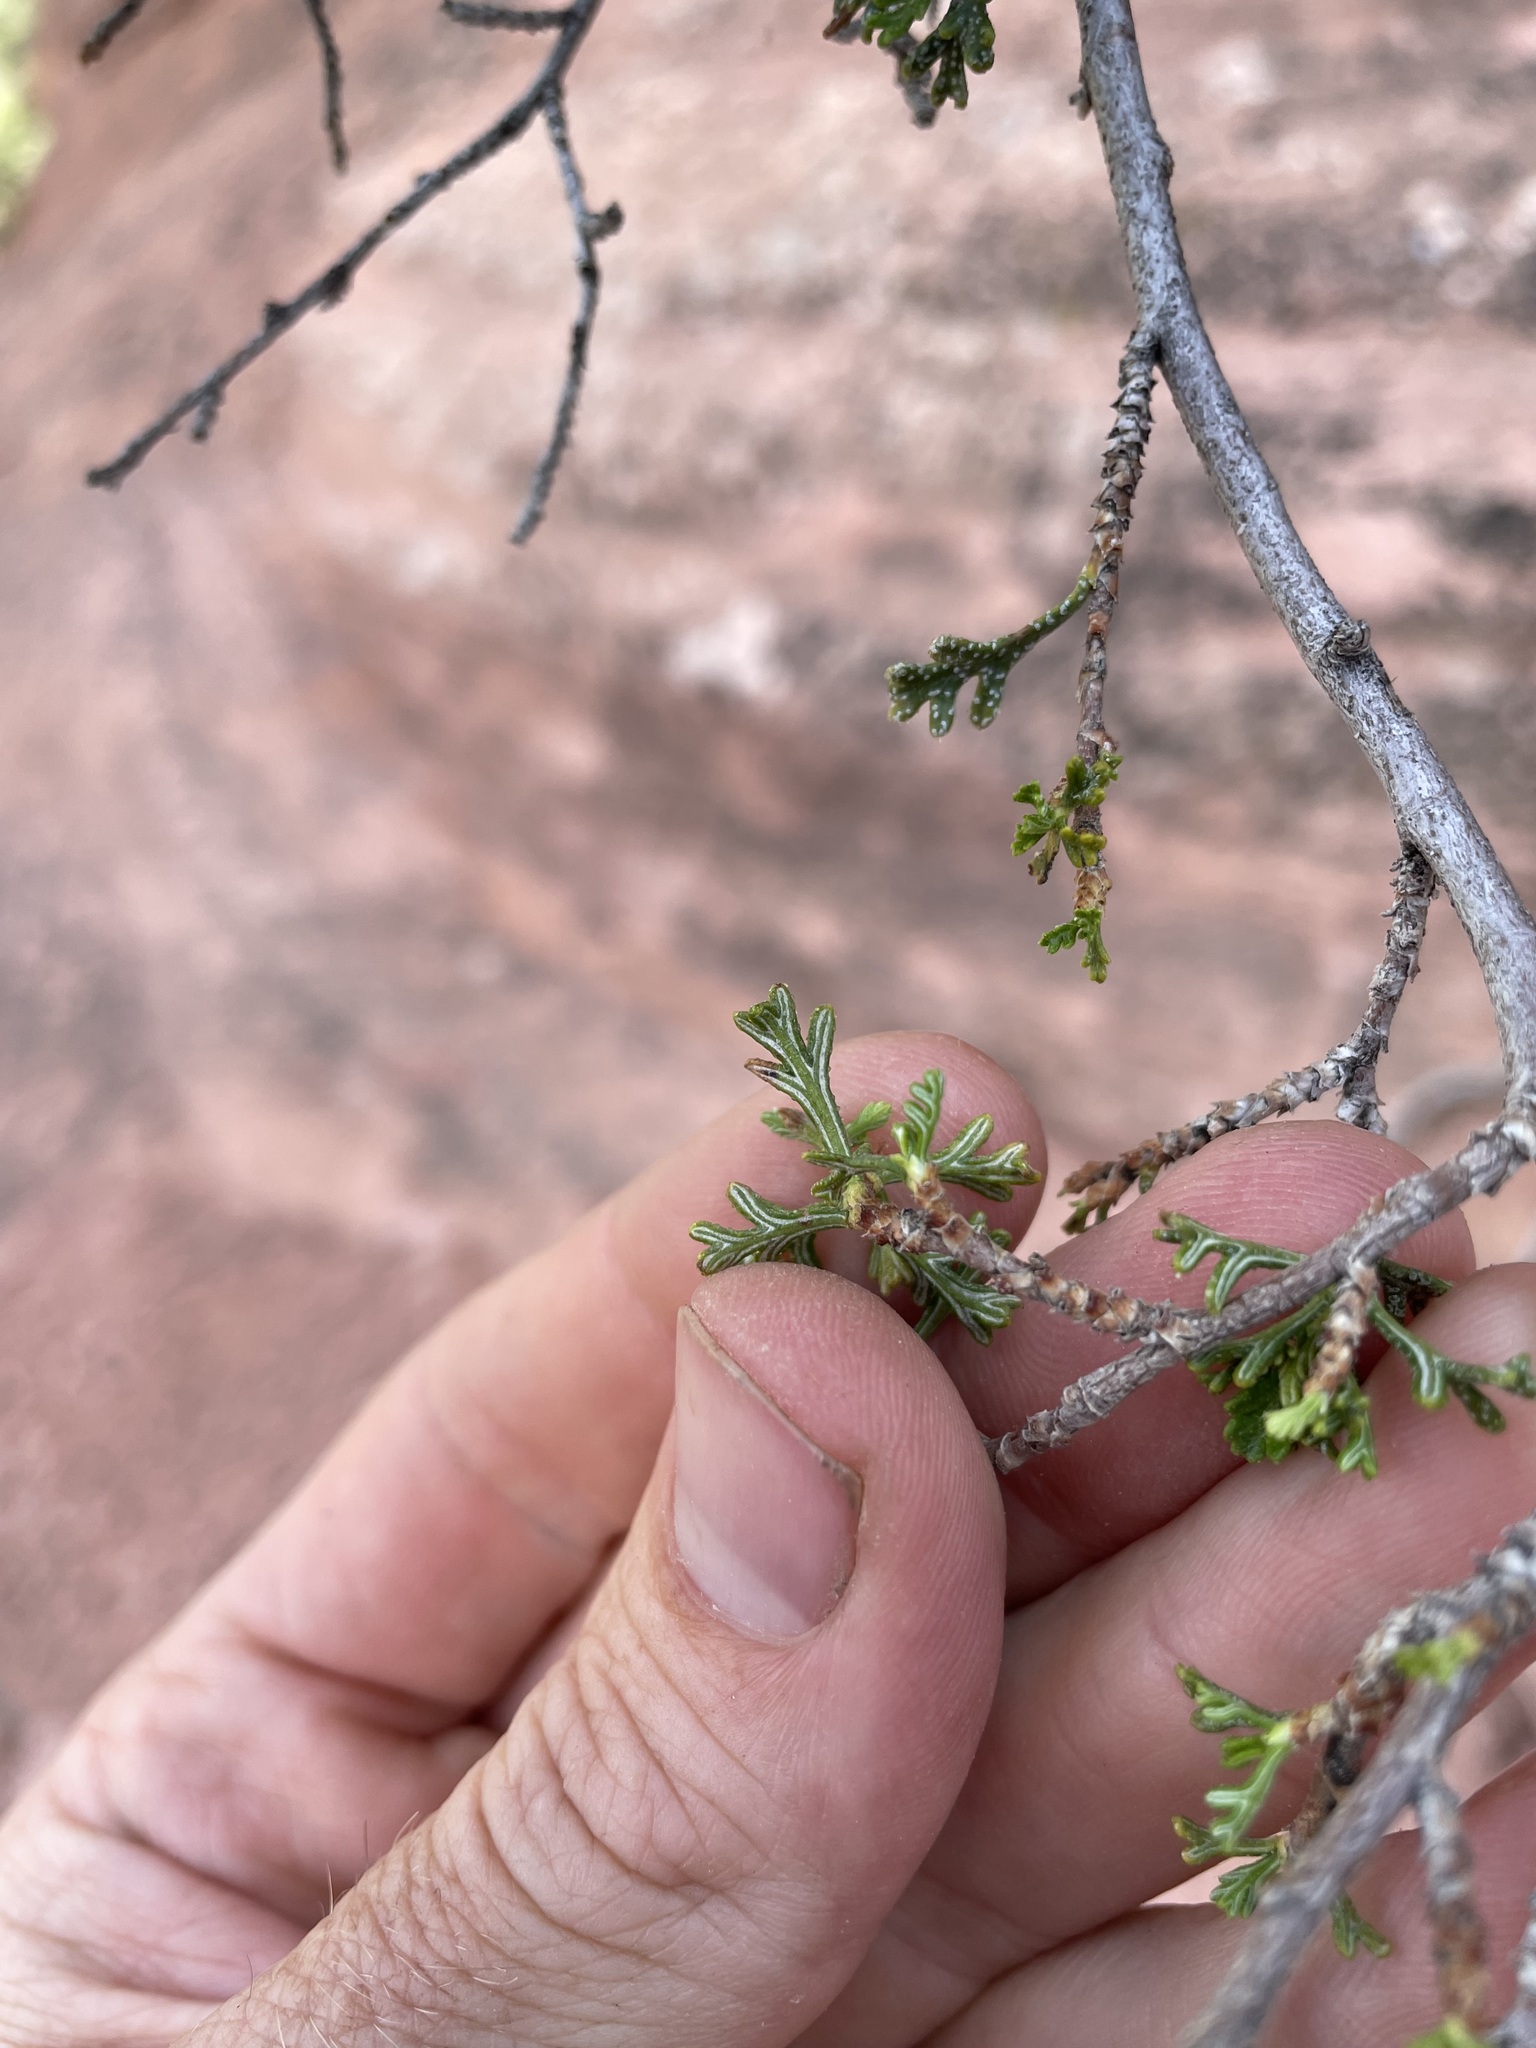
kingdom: Plantae
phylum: Tracheophyta
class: Magnoliopsida
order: Rosales
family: Rosaceae
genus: Purshia
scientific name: Purshia stansburiana
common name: Stansbury's cliffrose
